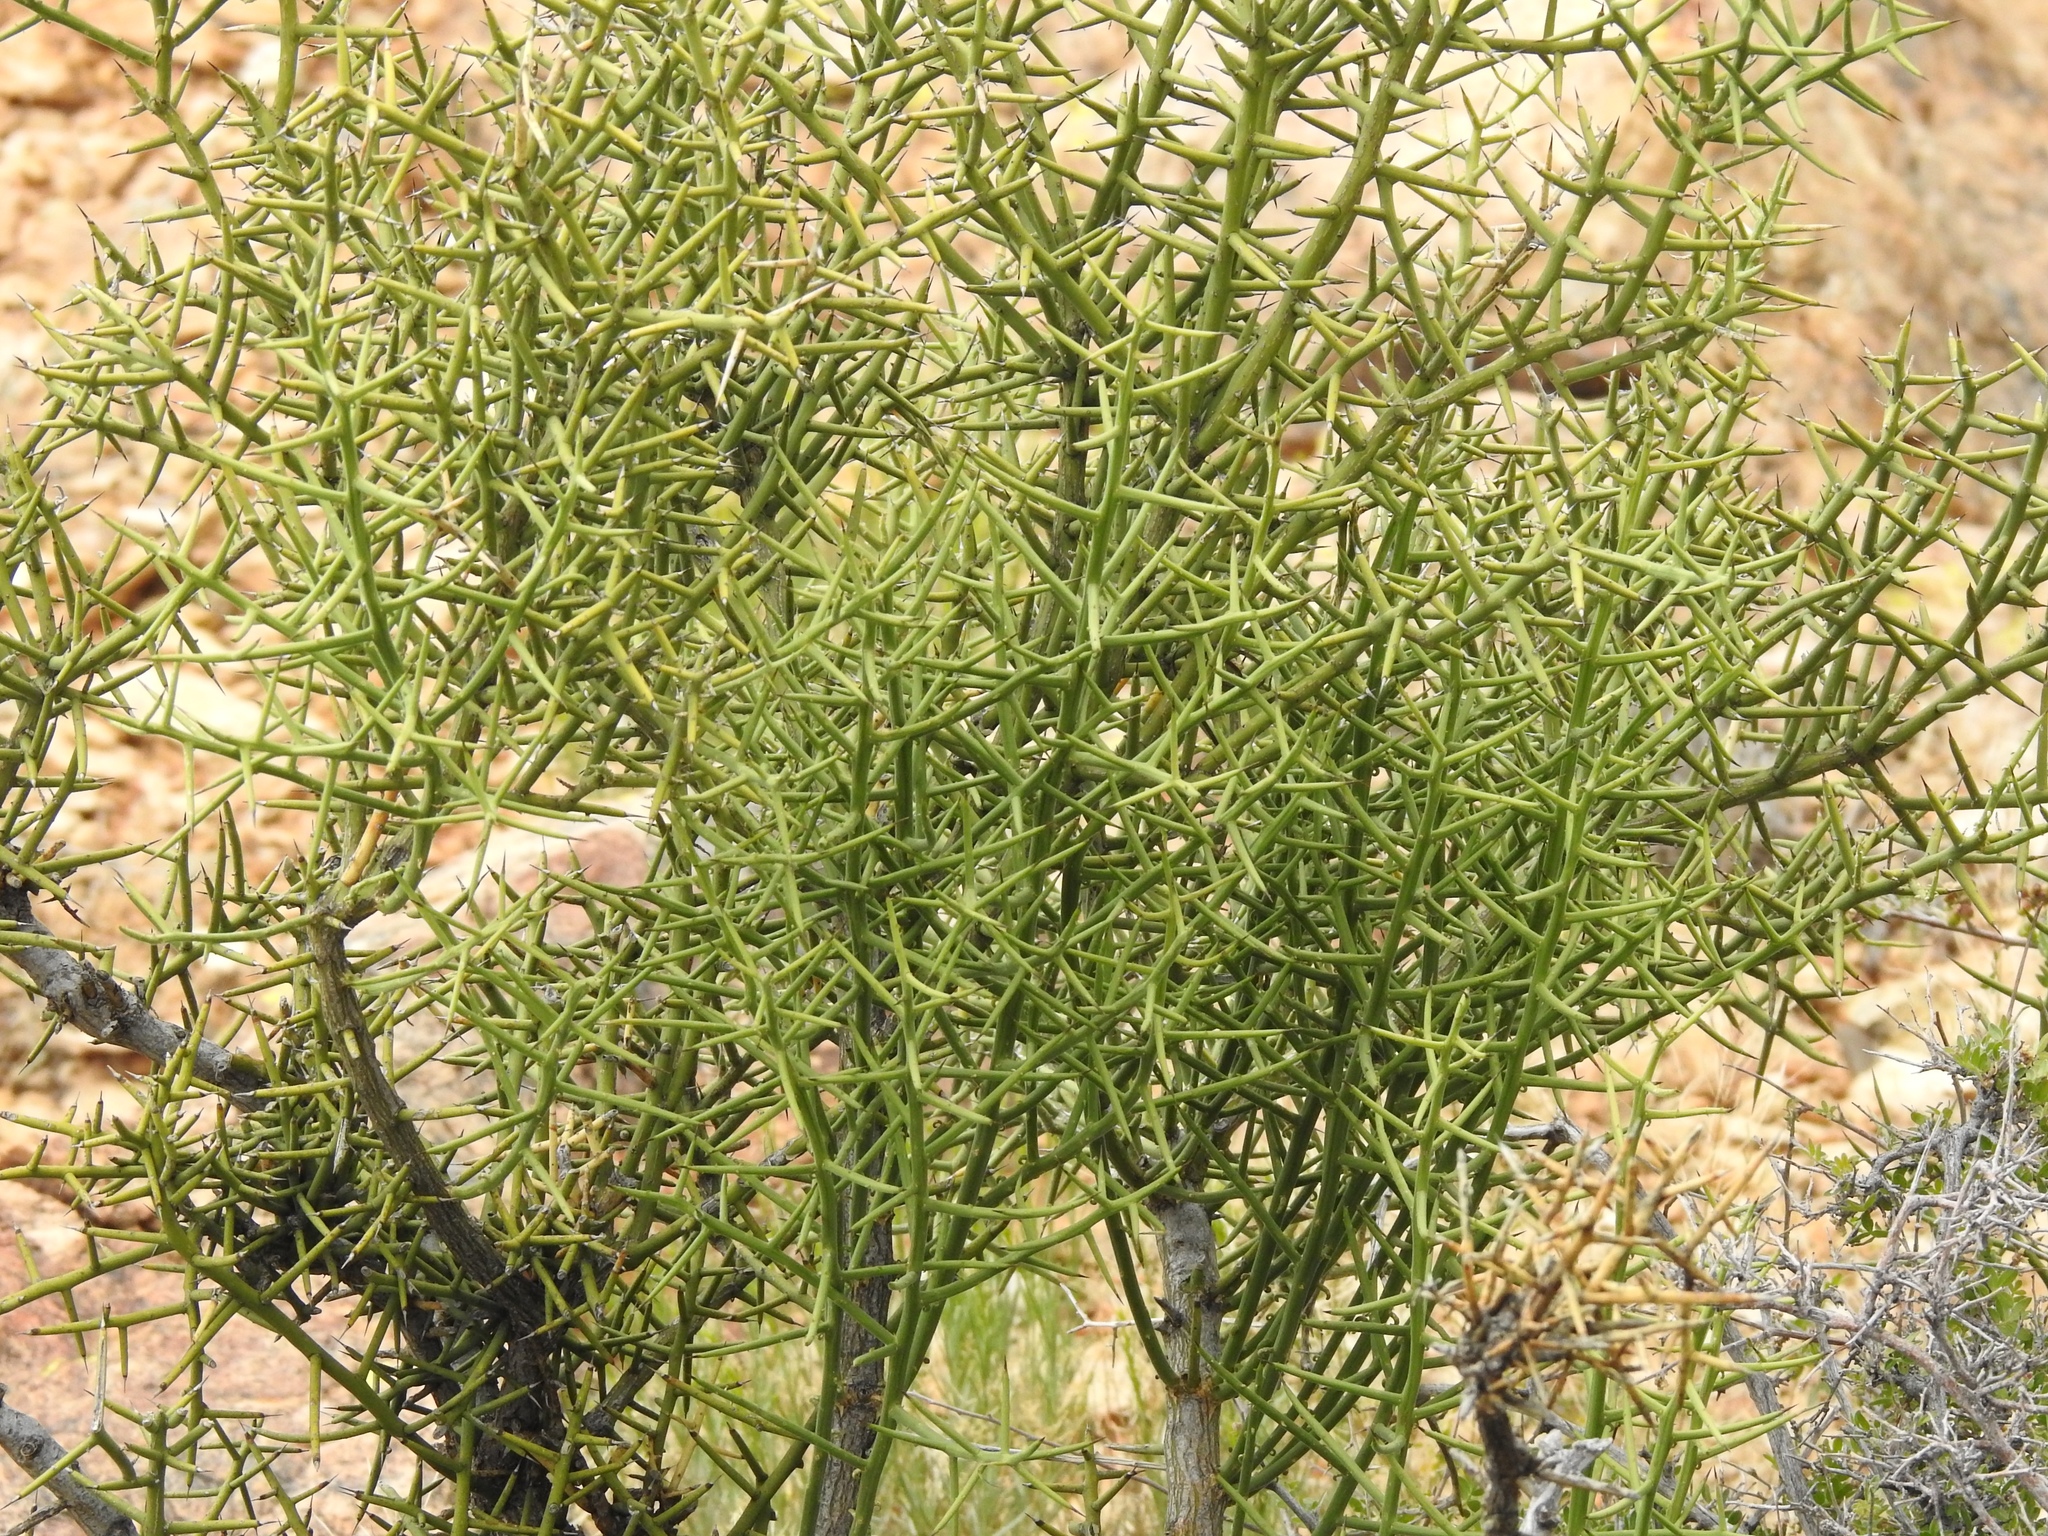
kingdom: Plantae
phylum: Tracheophyta
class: Magnoliopsida
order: Brassicales
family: Koeberliniaceae
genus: Koeberlinia
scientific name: Koeberlinia spinosa
